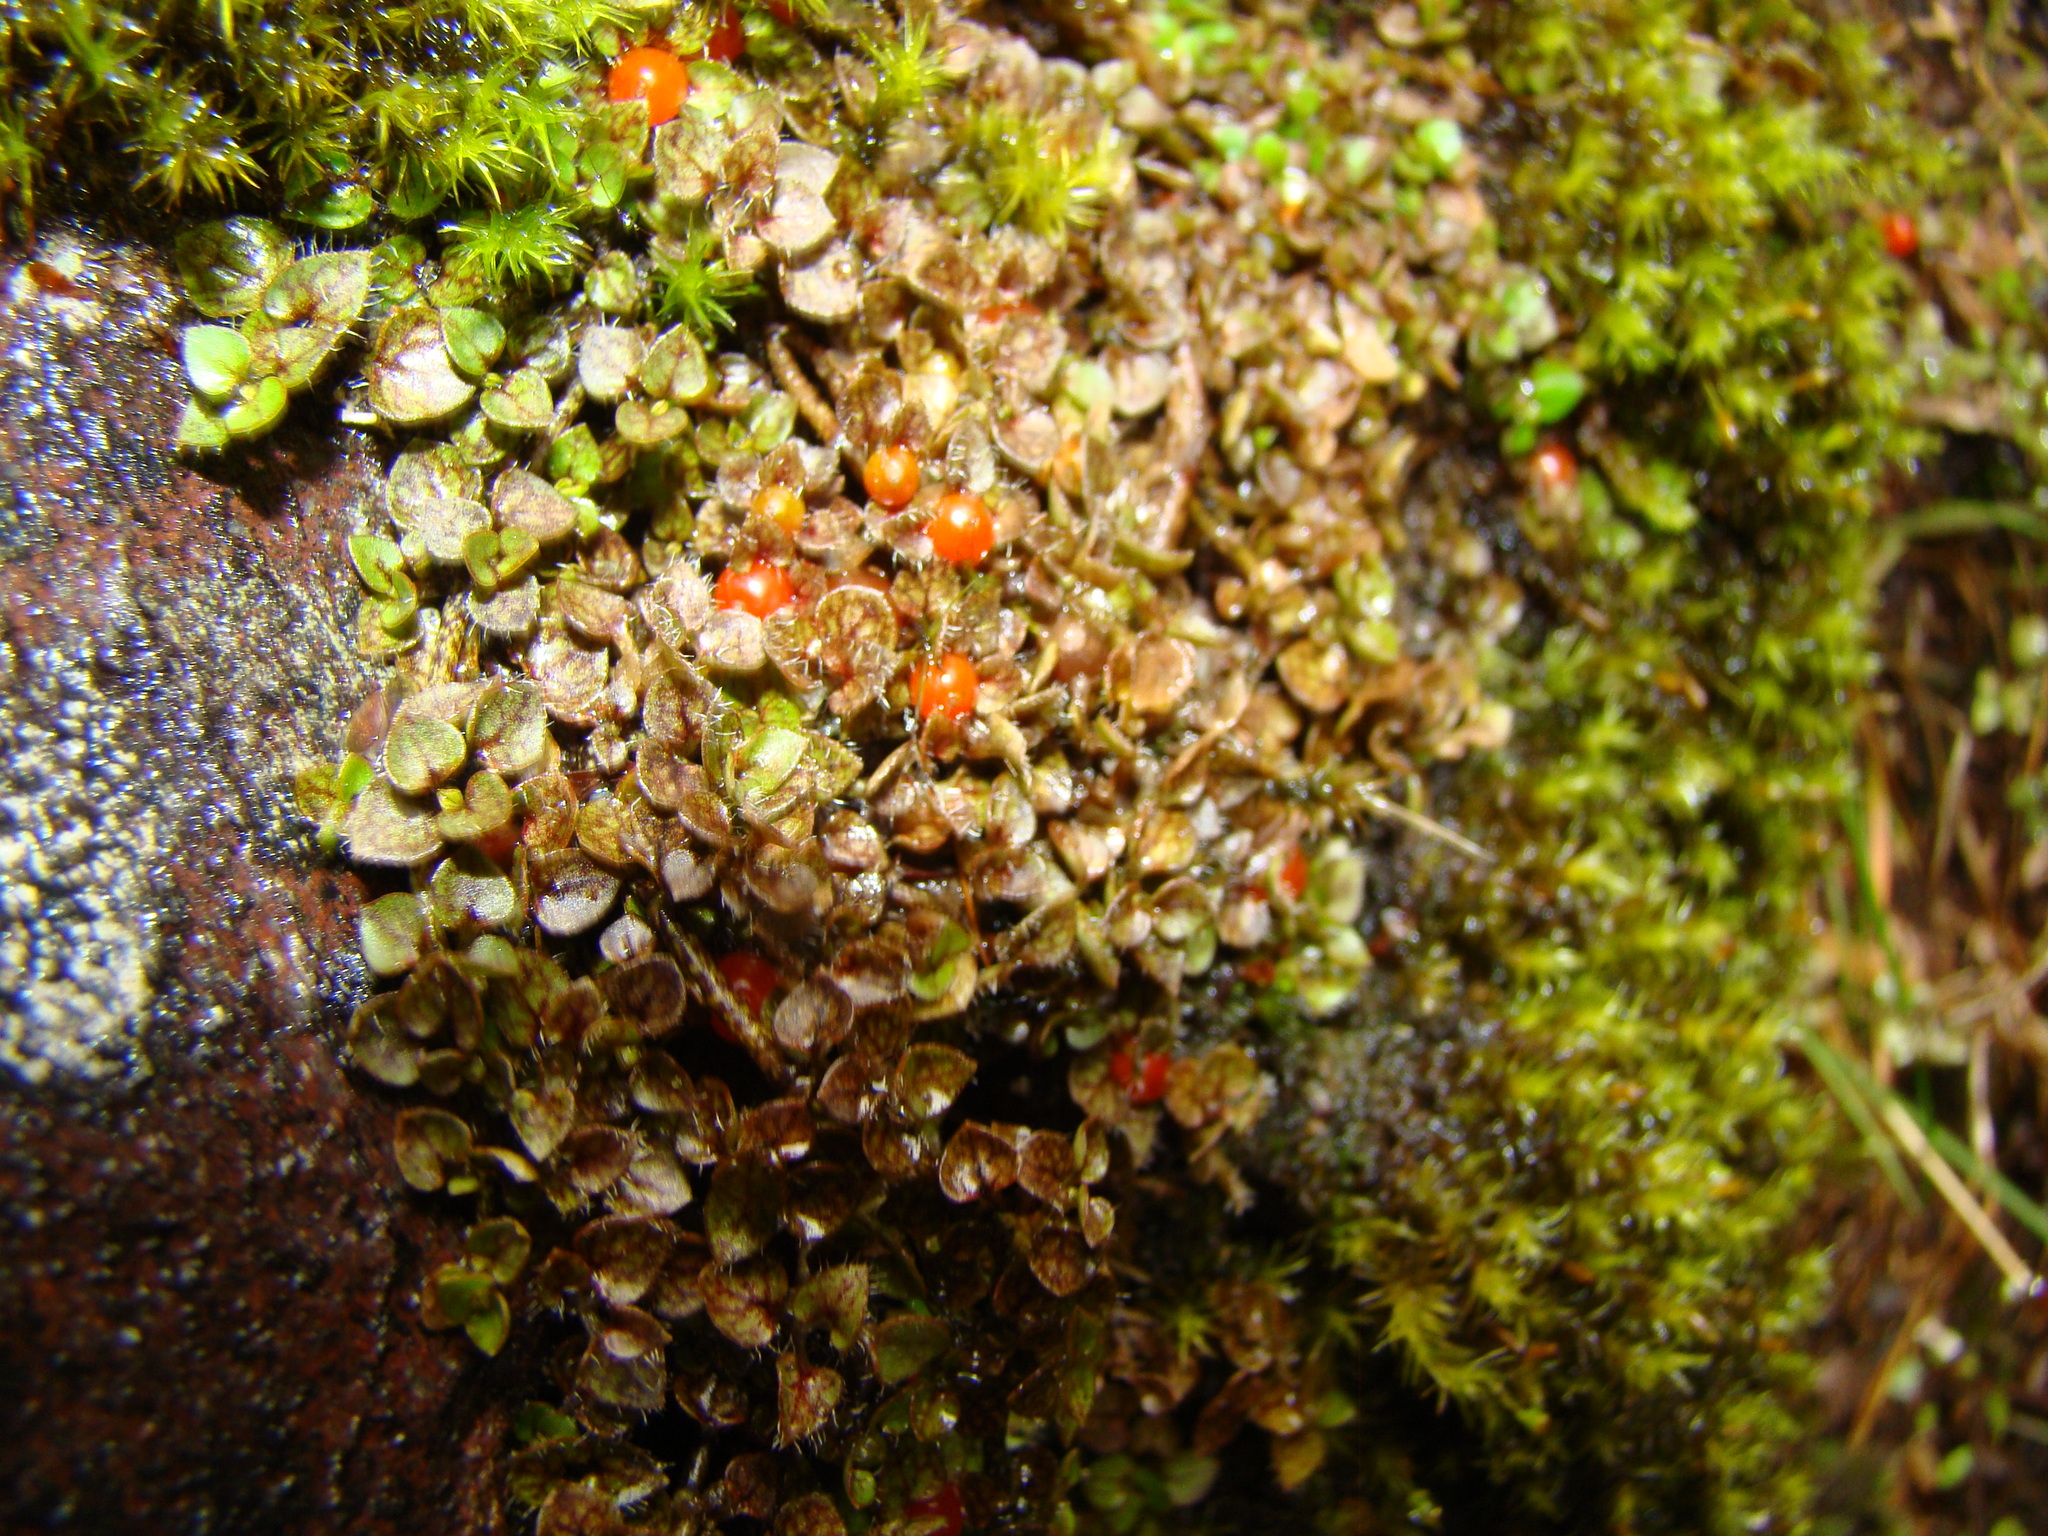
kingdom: Plantae
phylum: Tracheophyta
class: Magnoliopsida
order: Gentianales
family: Rubiaceae
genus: Nertera
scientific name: Nertera ciliata
